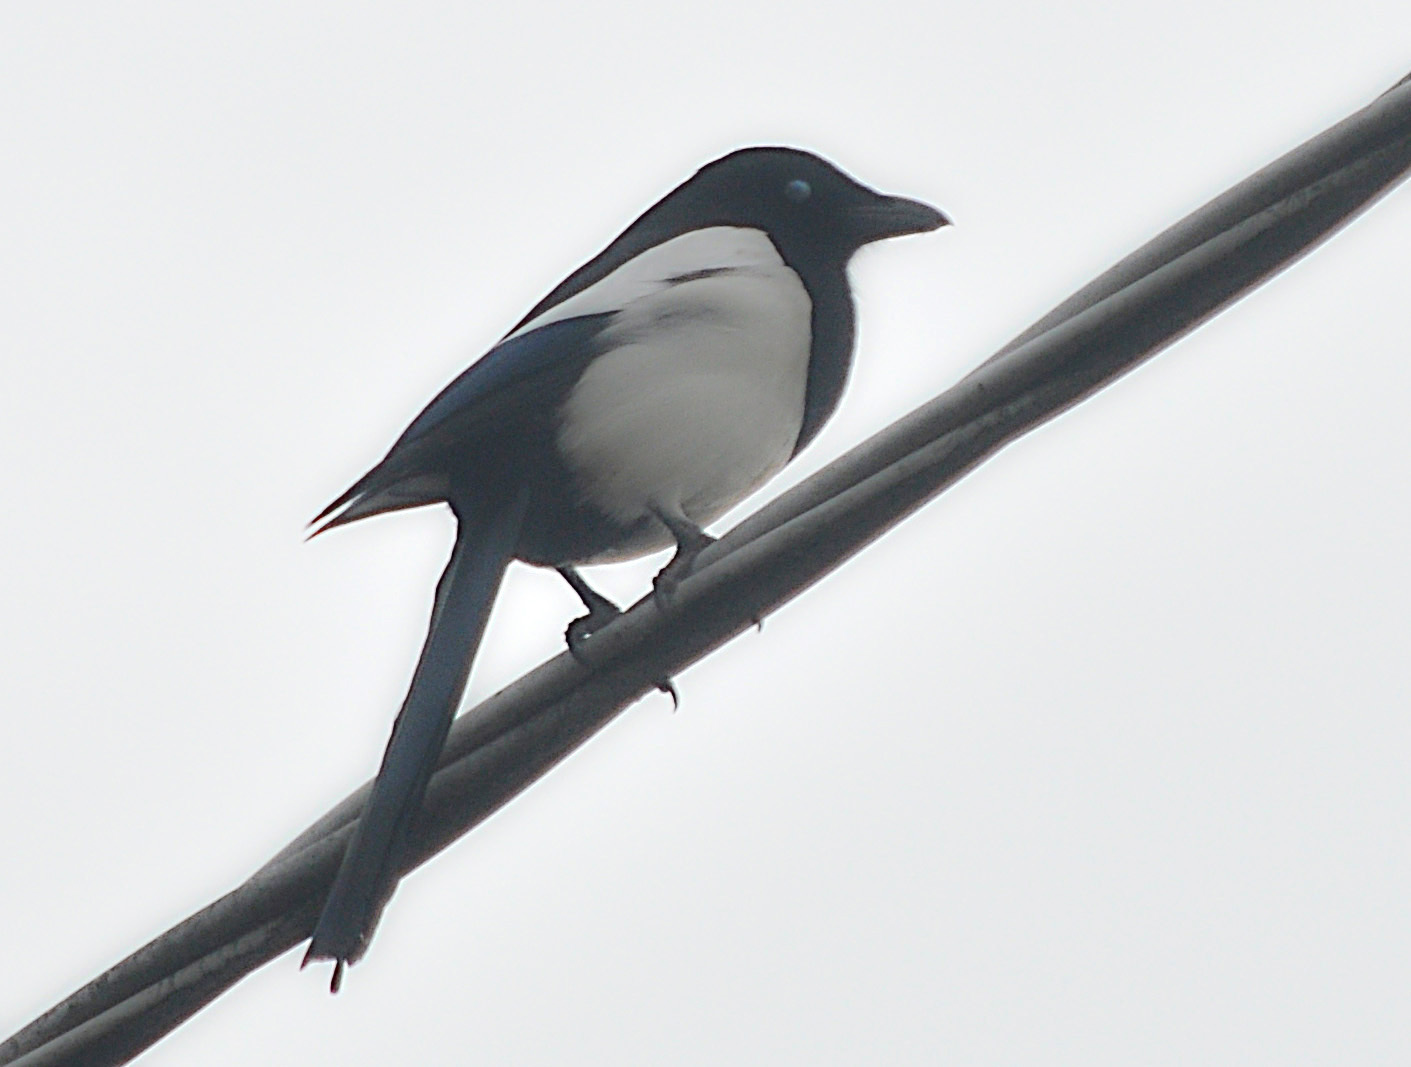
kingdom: Animalia
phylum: Chordata
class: Aves
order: Passeriformes
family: Corvidae
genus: Pica
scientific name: Pica pica
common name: Eurasian magpie
